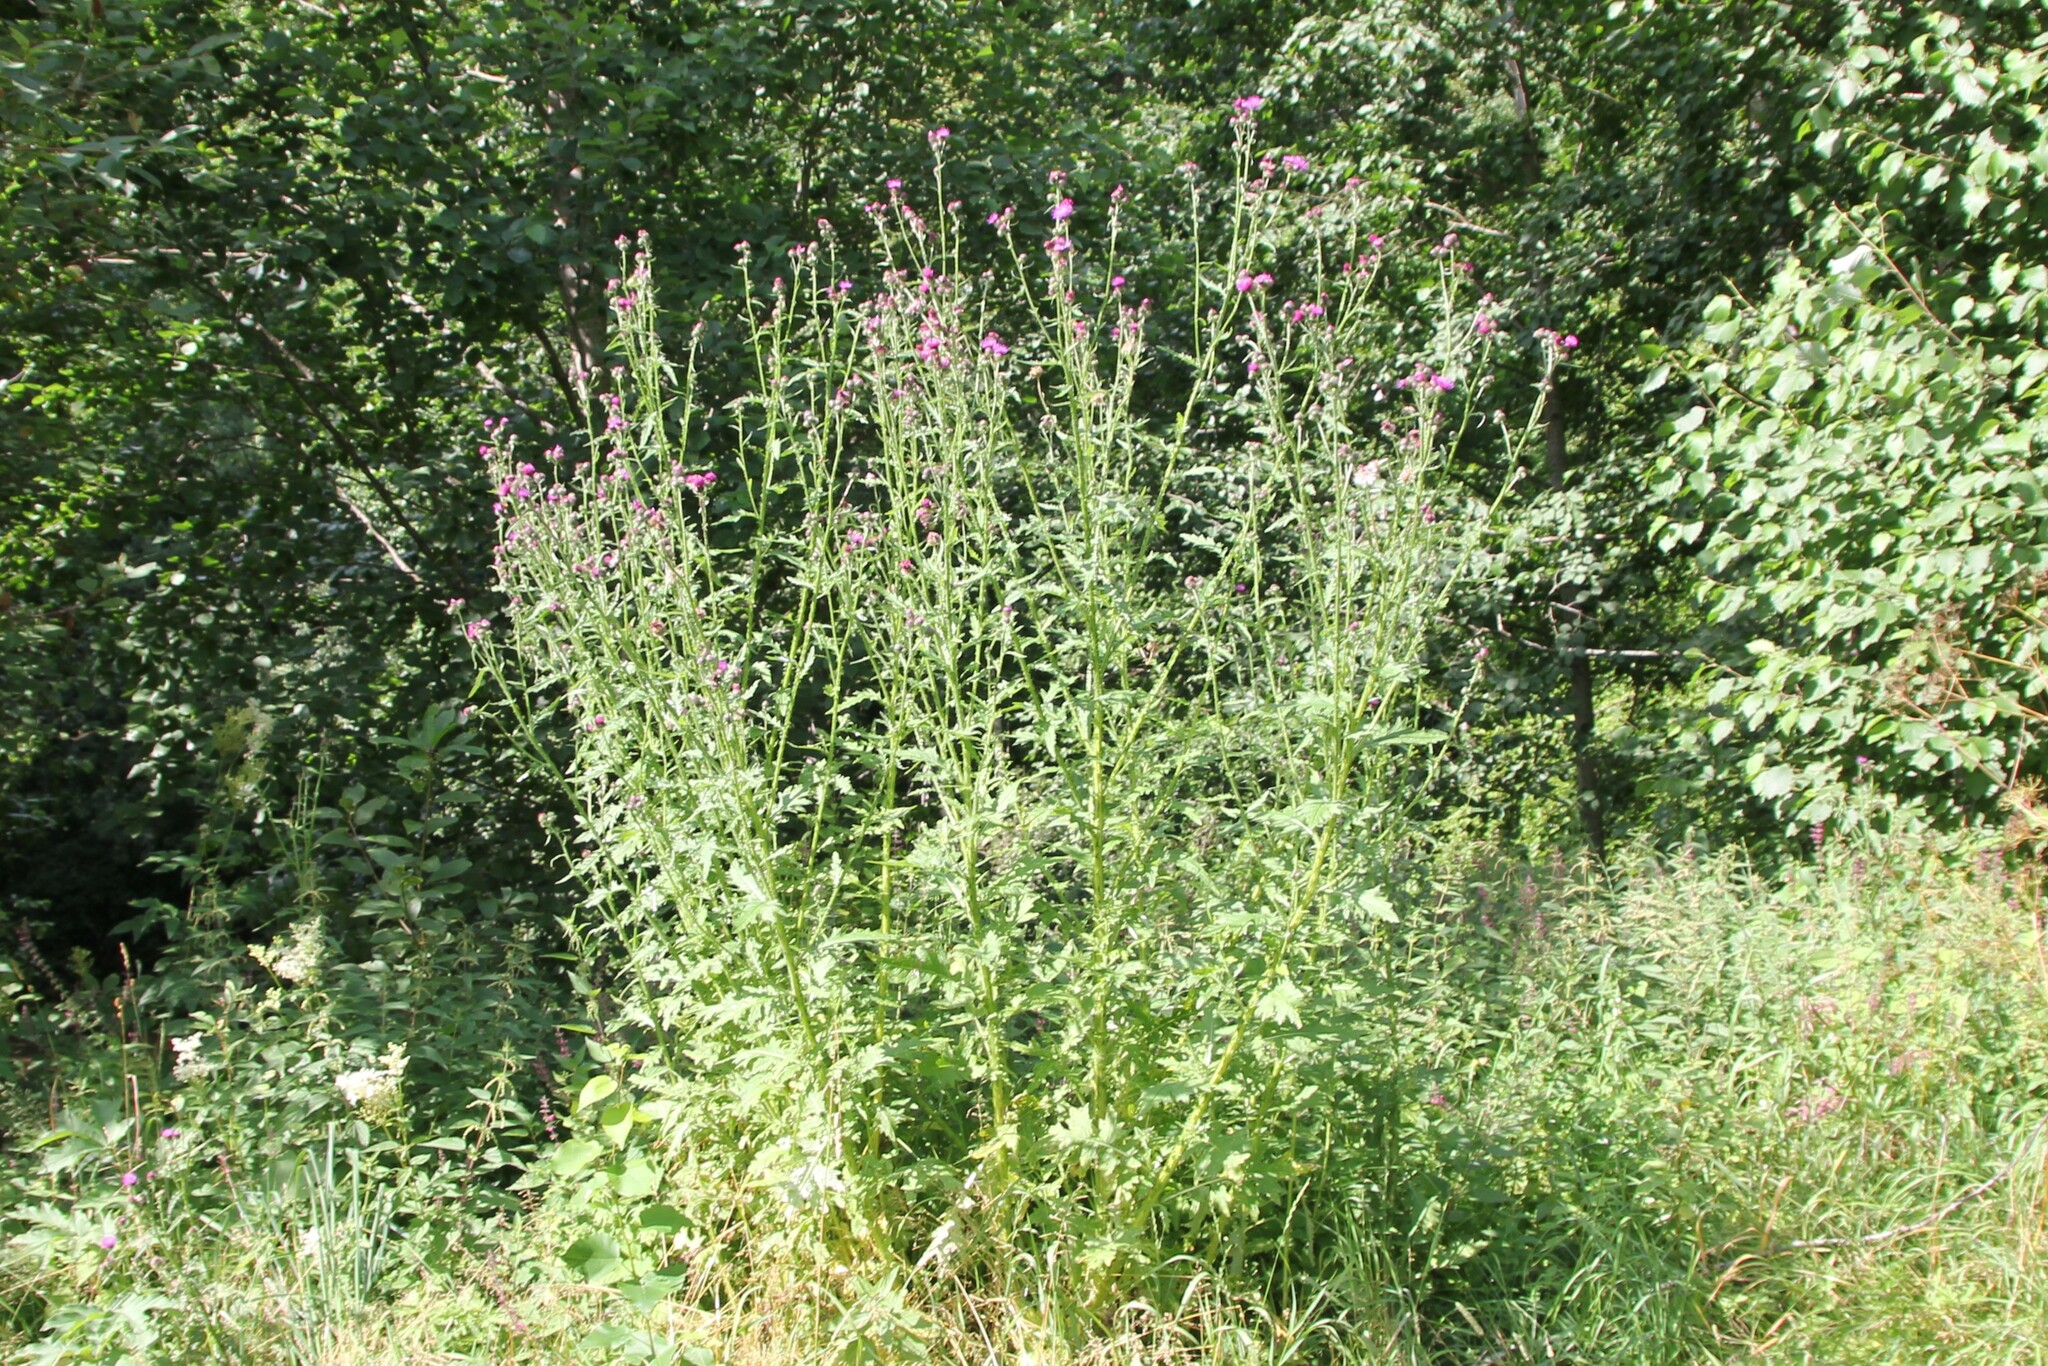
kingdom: Plantae
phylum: Tracheophyta
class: Magnoliopsida
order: Asterales
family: Asteraceae
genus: Carduus
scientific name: Carduus crispus
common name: Welted thistle
